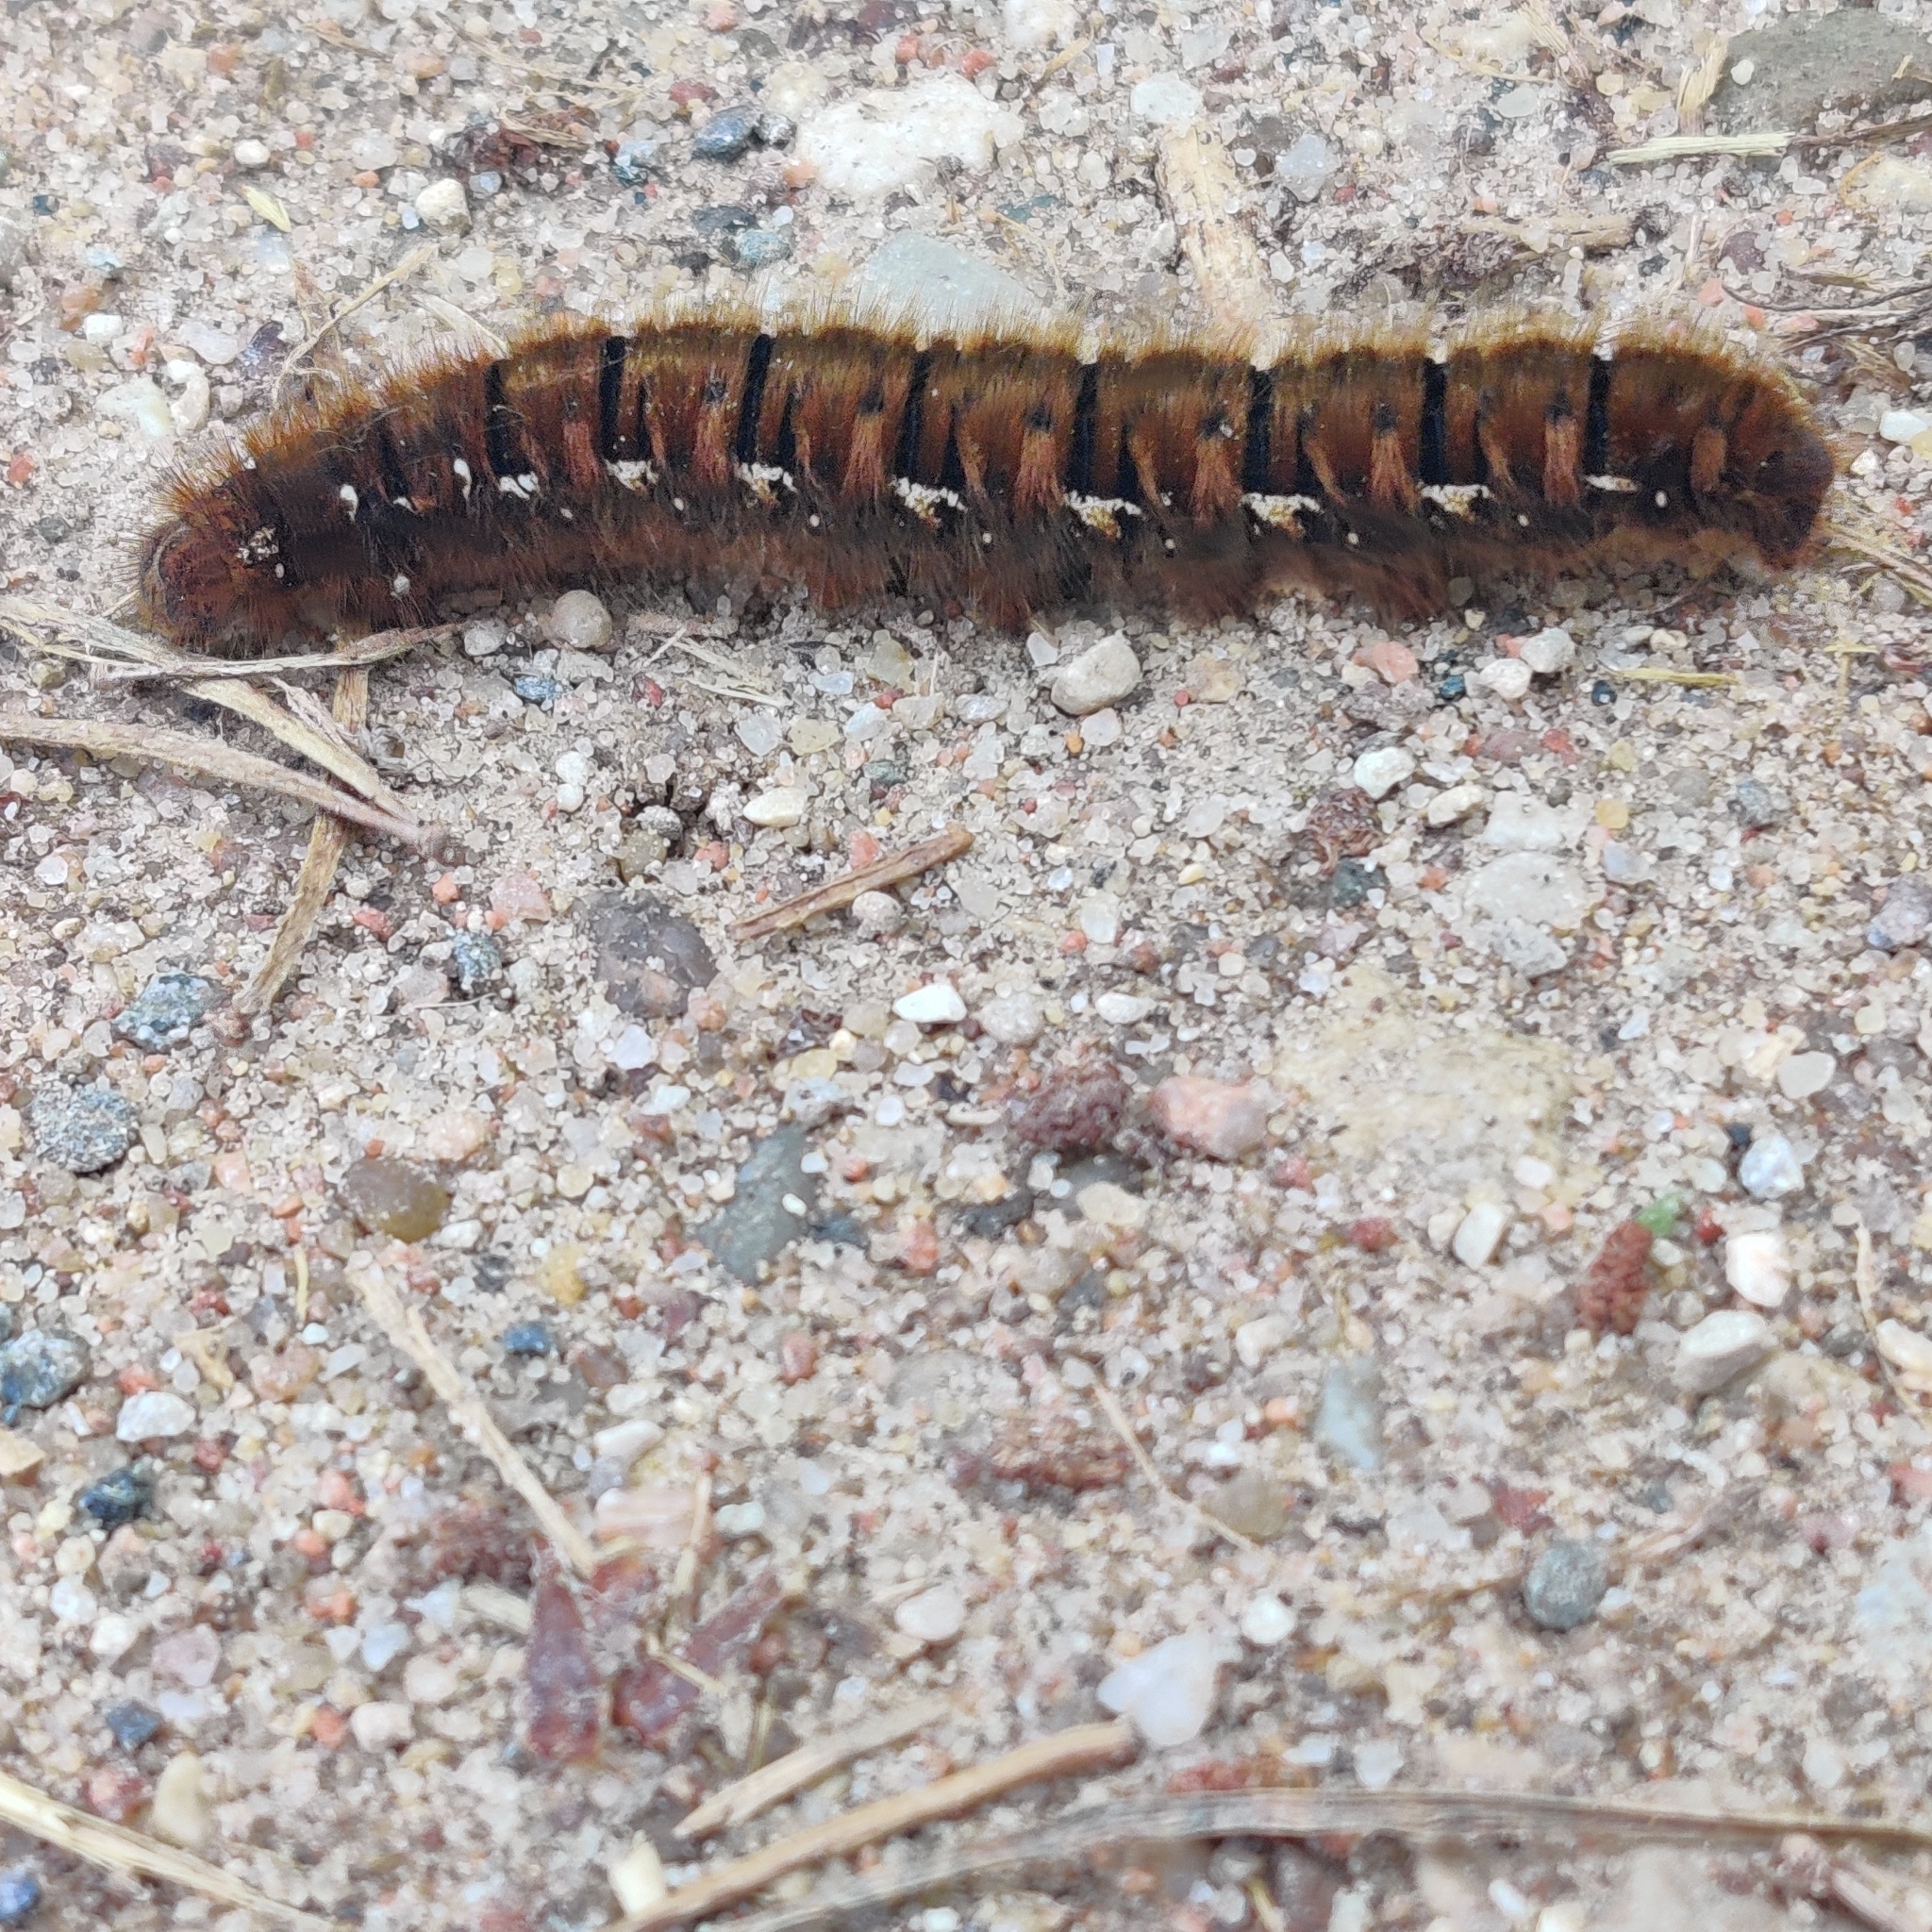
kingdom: Animalia
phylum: Arthropoda
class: Insecta
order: Lepidoptera
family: Lasiocampidae
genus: Lasiocampa
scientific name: Lasiocampa quercus
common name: Oak eggar
